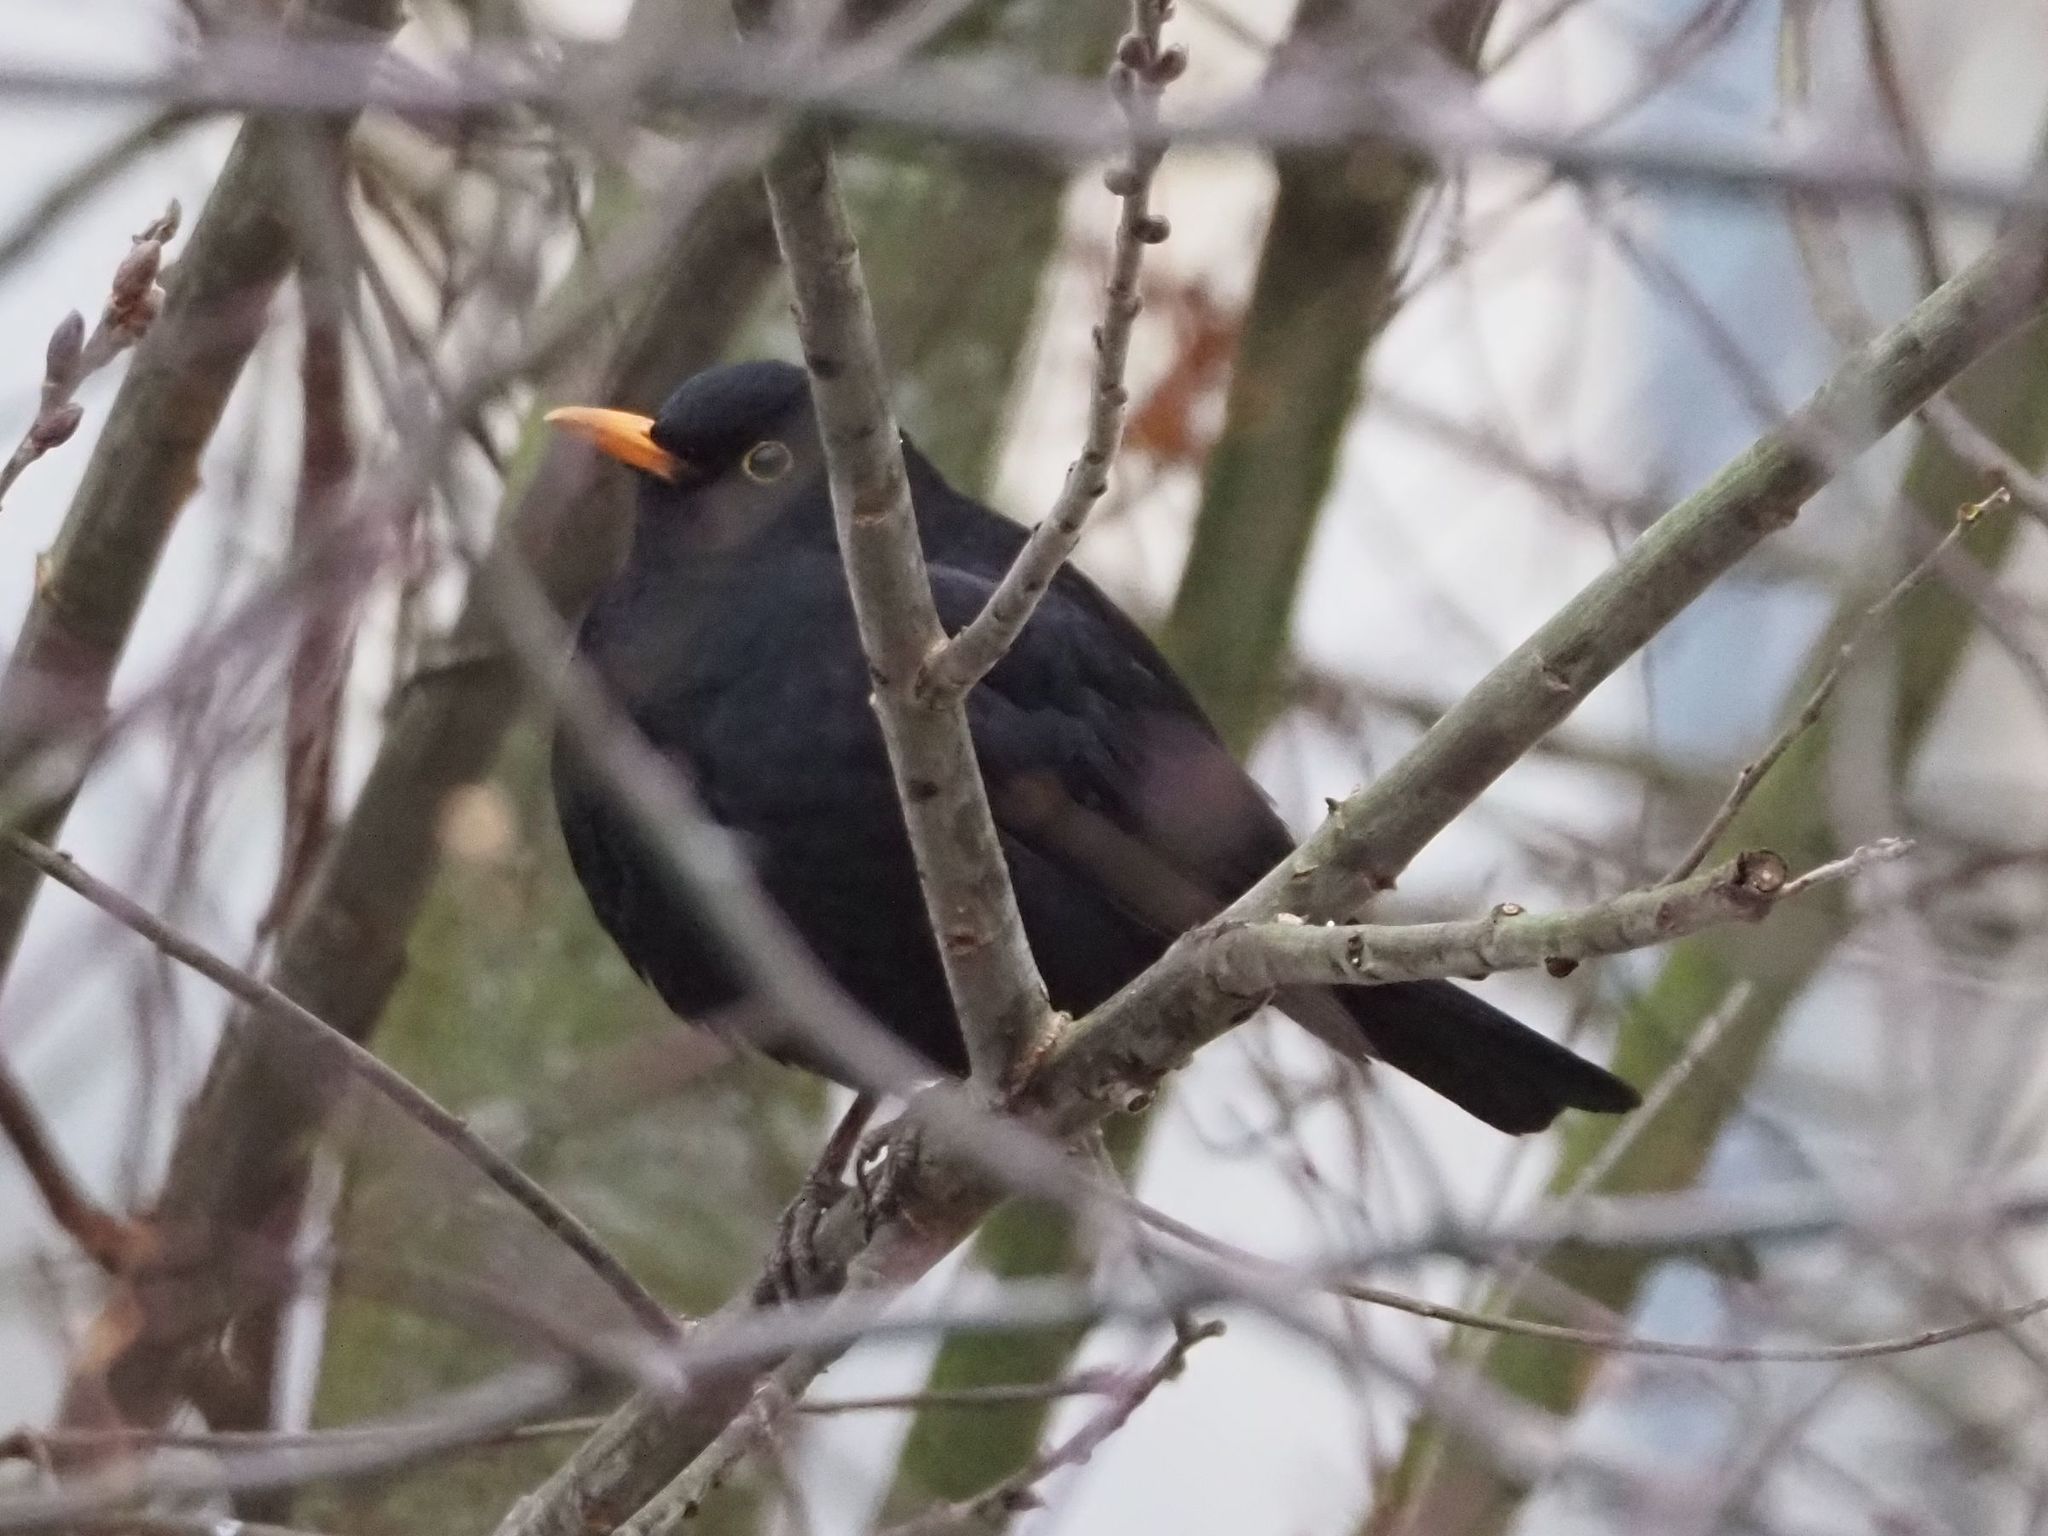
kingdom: Animalia
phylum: Chordata
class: Aves
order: Passeriformes
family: Turdidae
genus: Turdus
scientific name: Turdus merula
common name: Common blackbird
